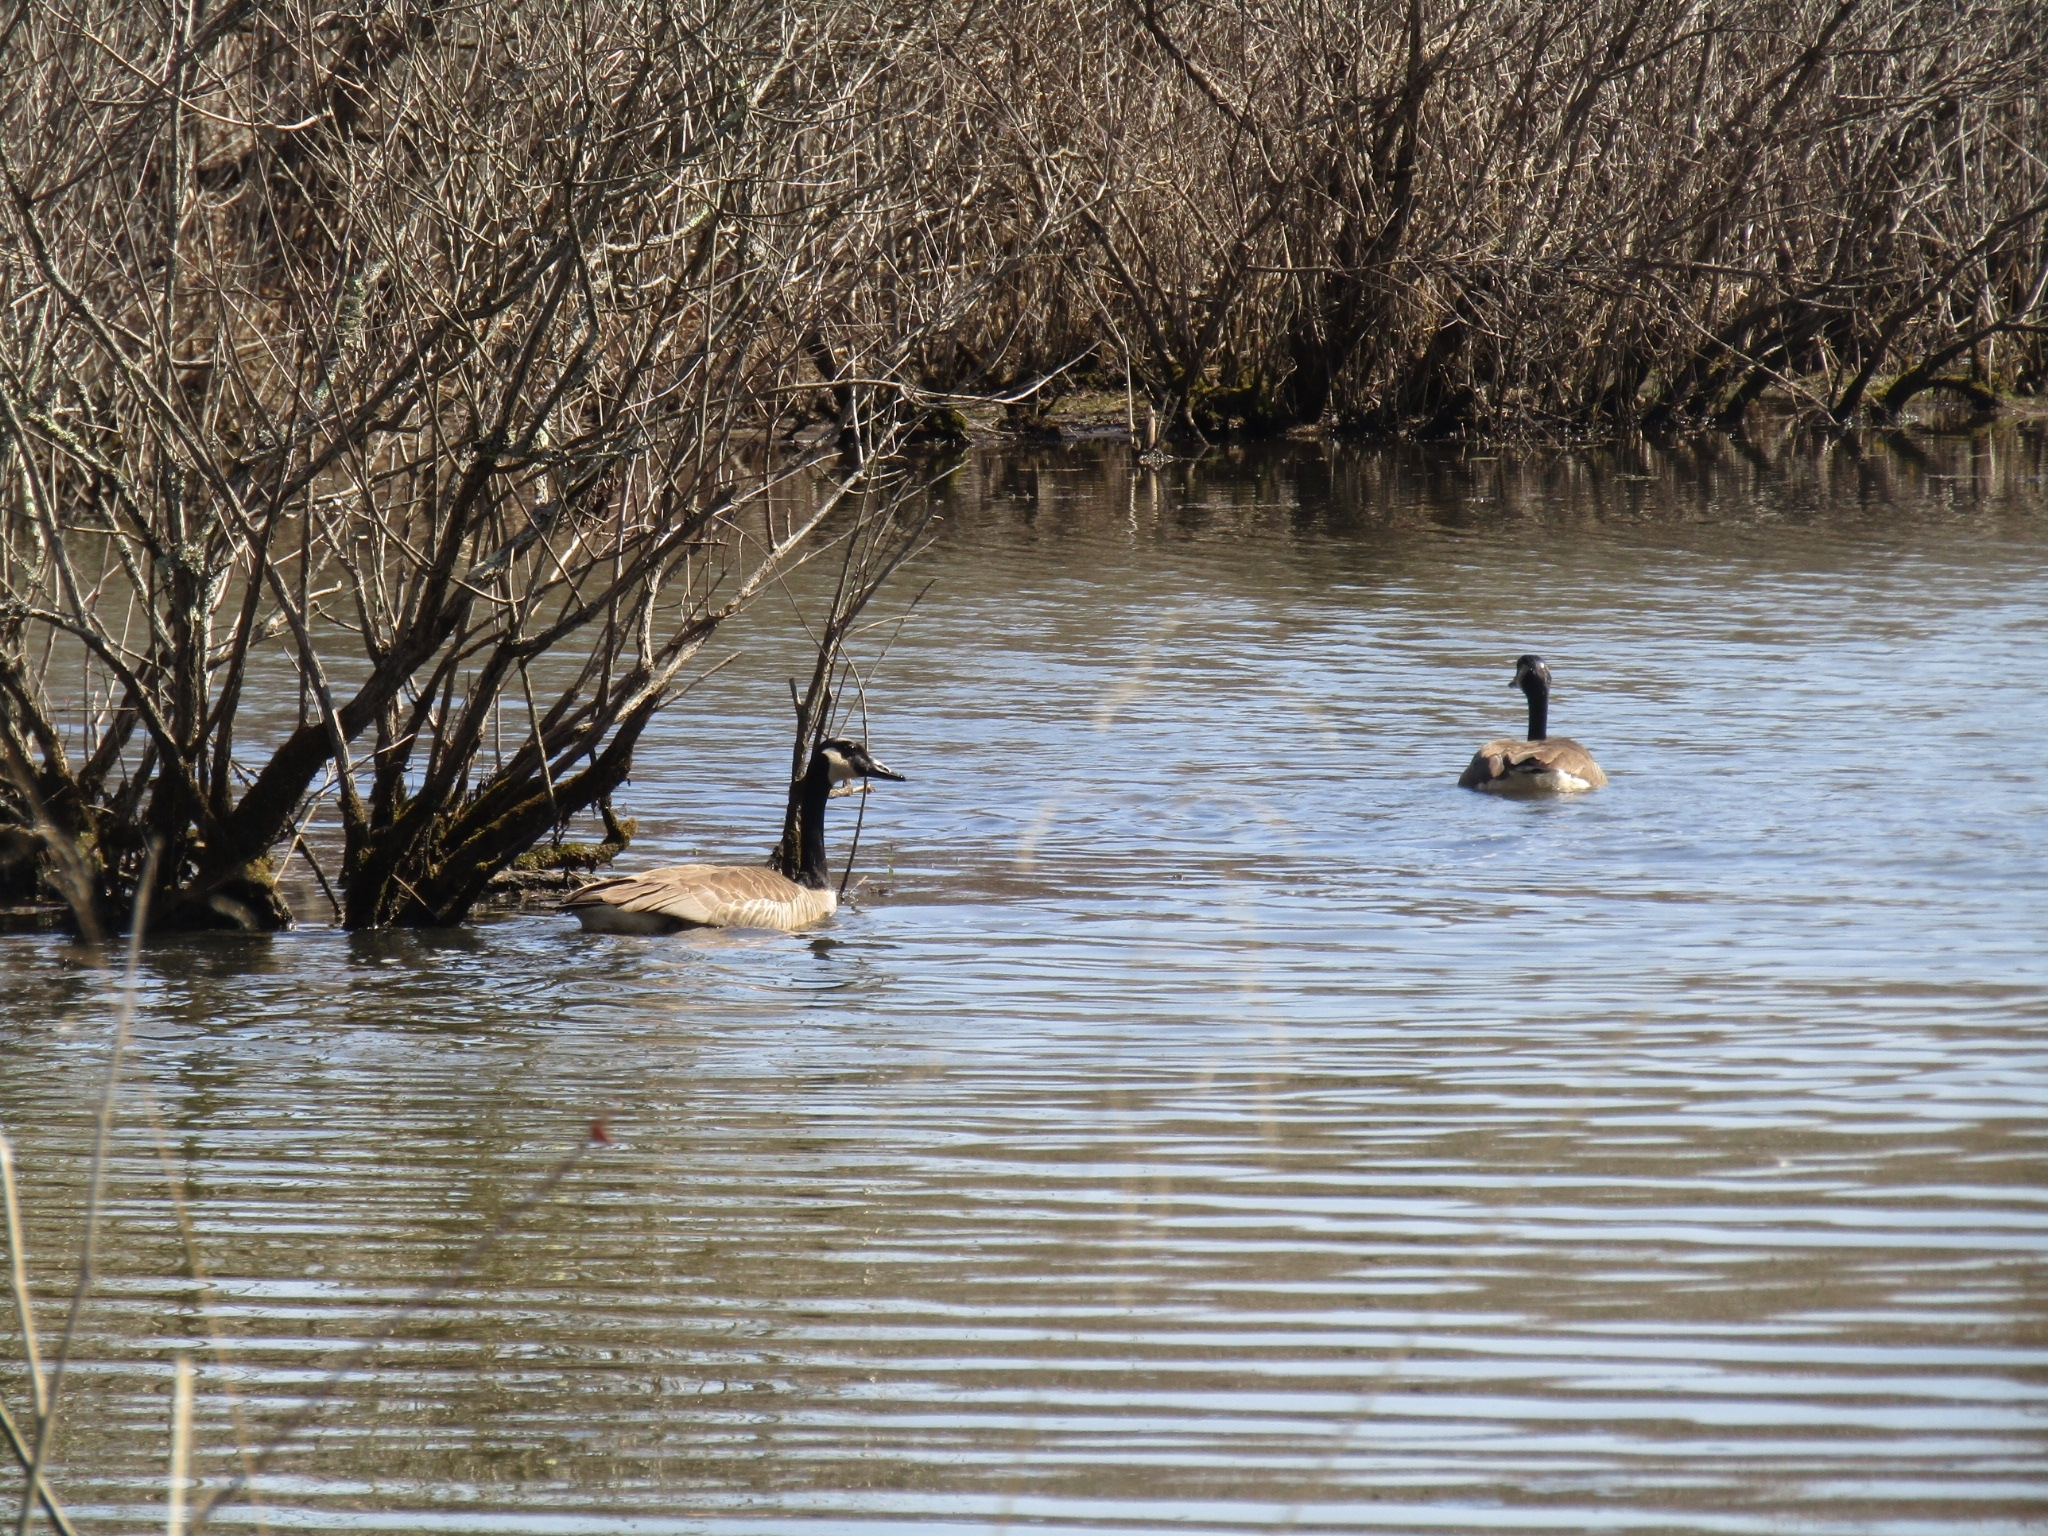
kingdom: Animalia
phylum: Chordata
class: Aves
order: Anseriformes
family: Anatidae
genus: Branta
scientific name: Branta canadensis
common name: Canada goose
